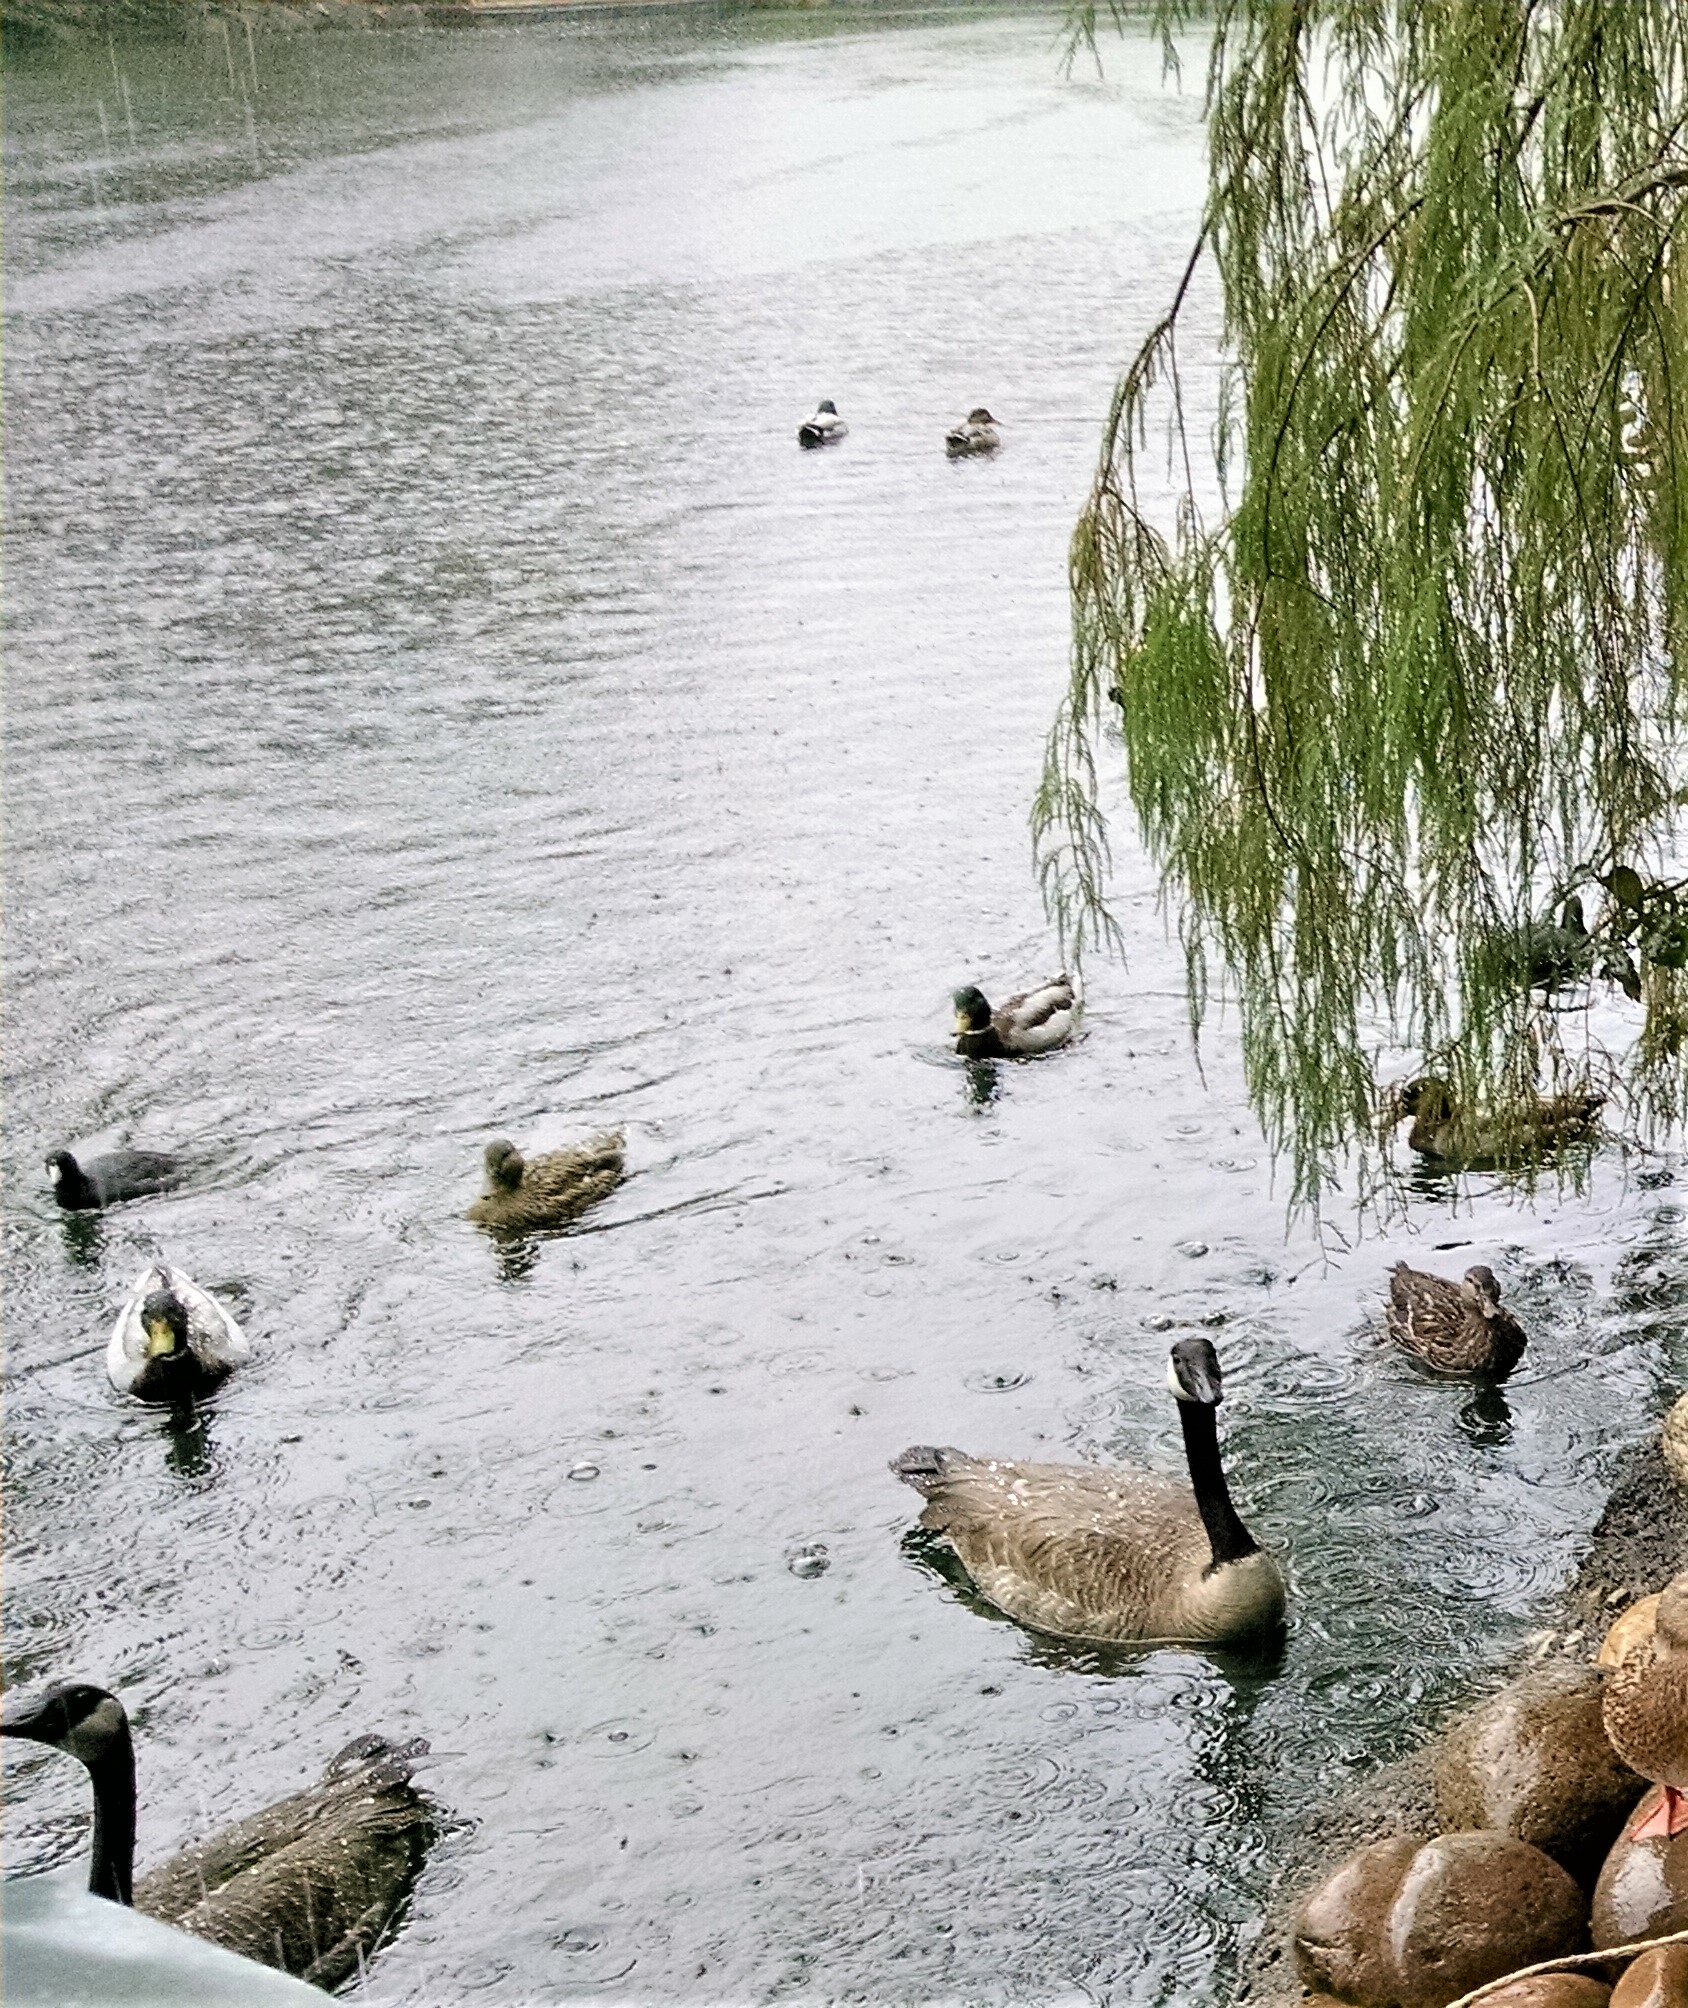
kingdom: Animalia
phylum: Chordata
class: Aves
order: Gruiformes
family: Rallidae
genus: Fulica
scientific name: Fulica americana
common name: American coot
